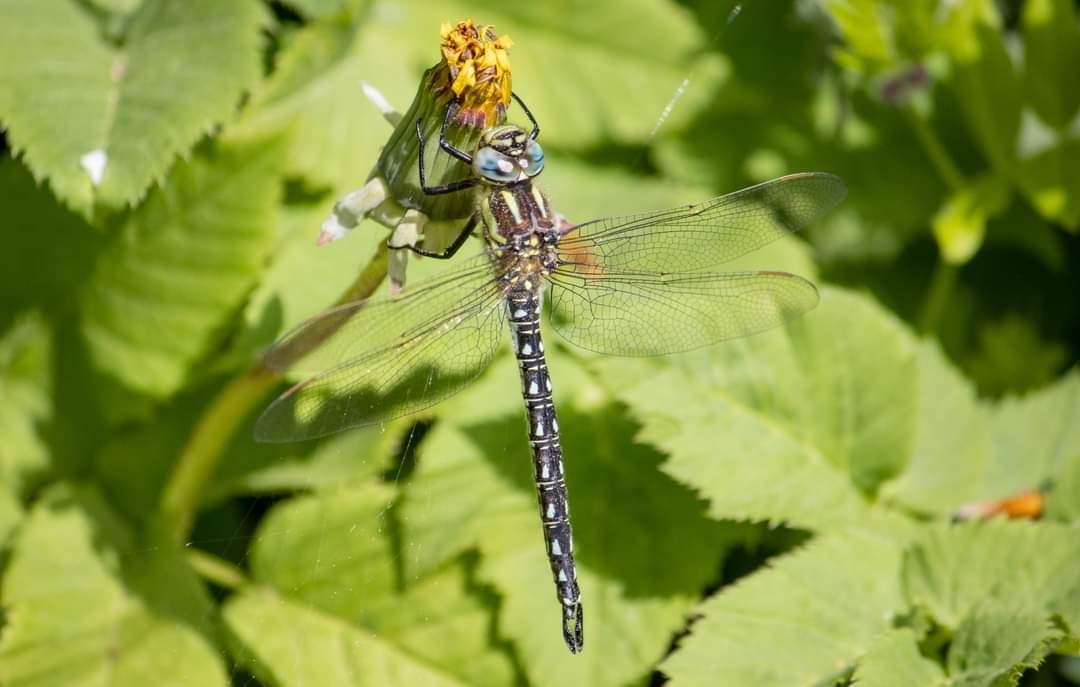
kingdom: Animalia
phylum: Arthropoda
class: Insecta
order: Odonata
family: Aeshnidae
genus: Brachytron
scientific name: Brachytron pratense
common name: Hairy hawker
